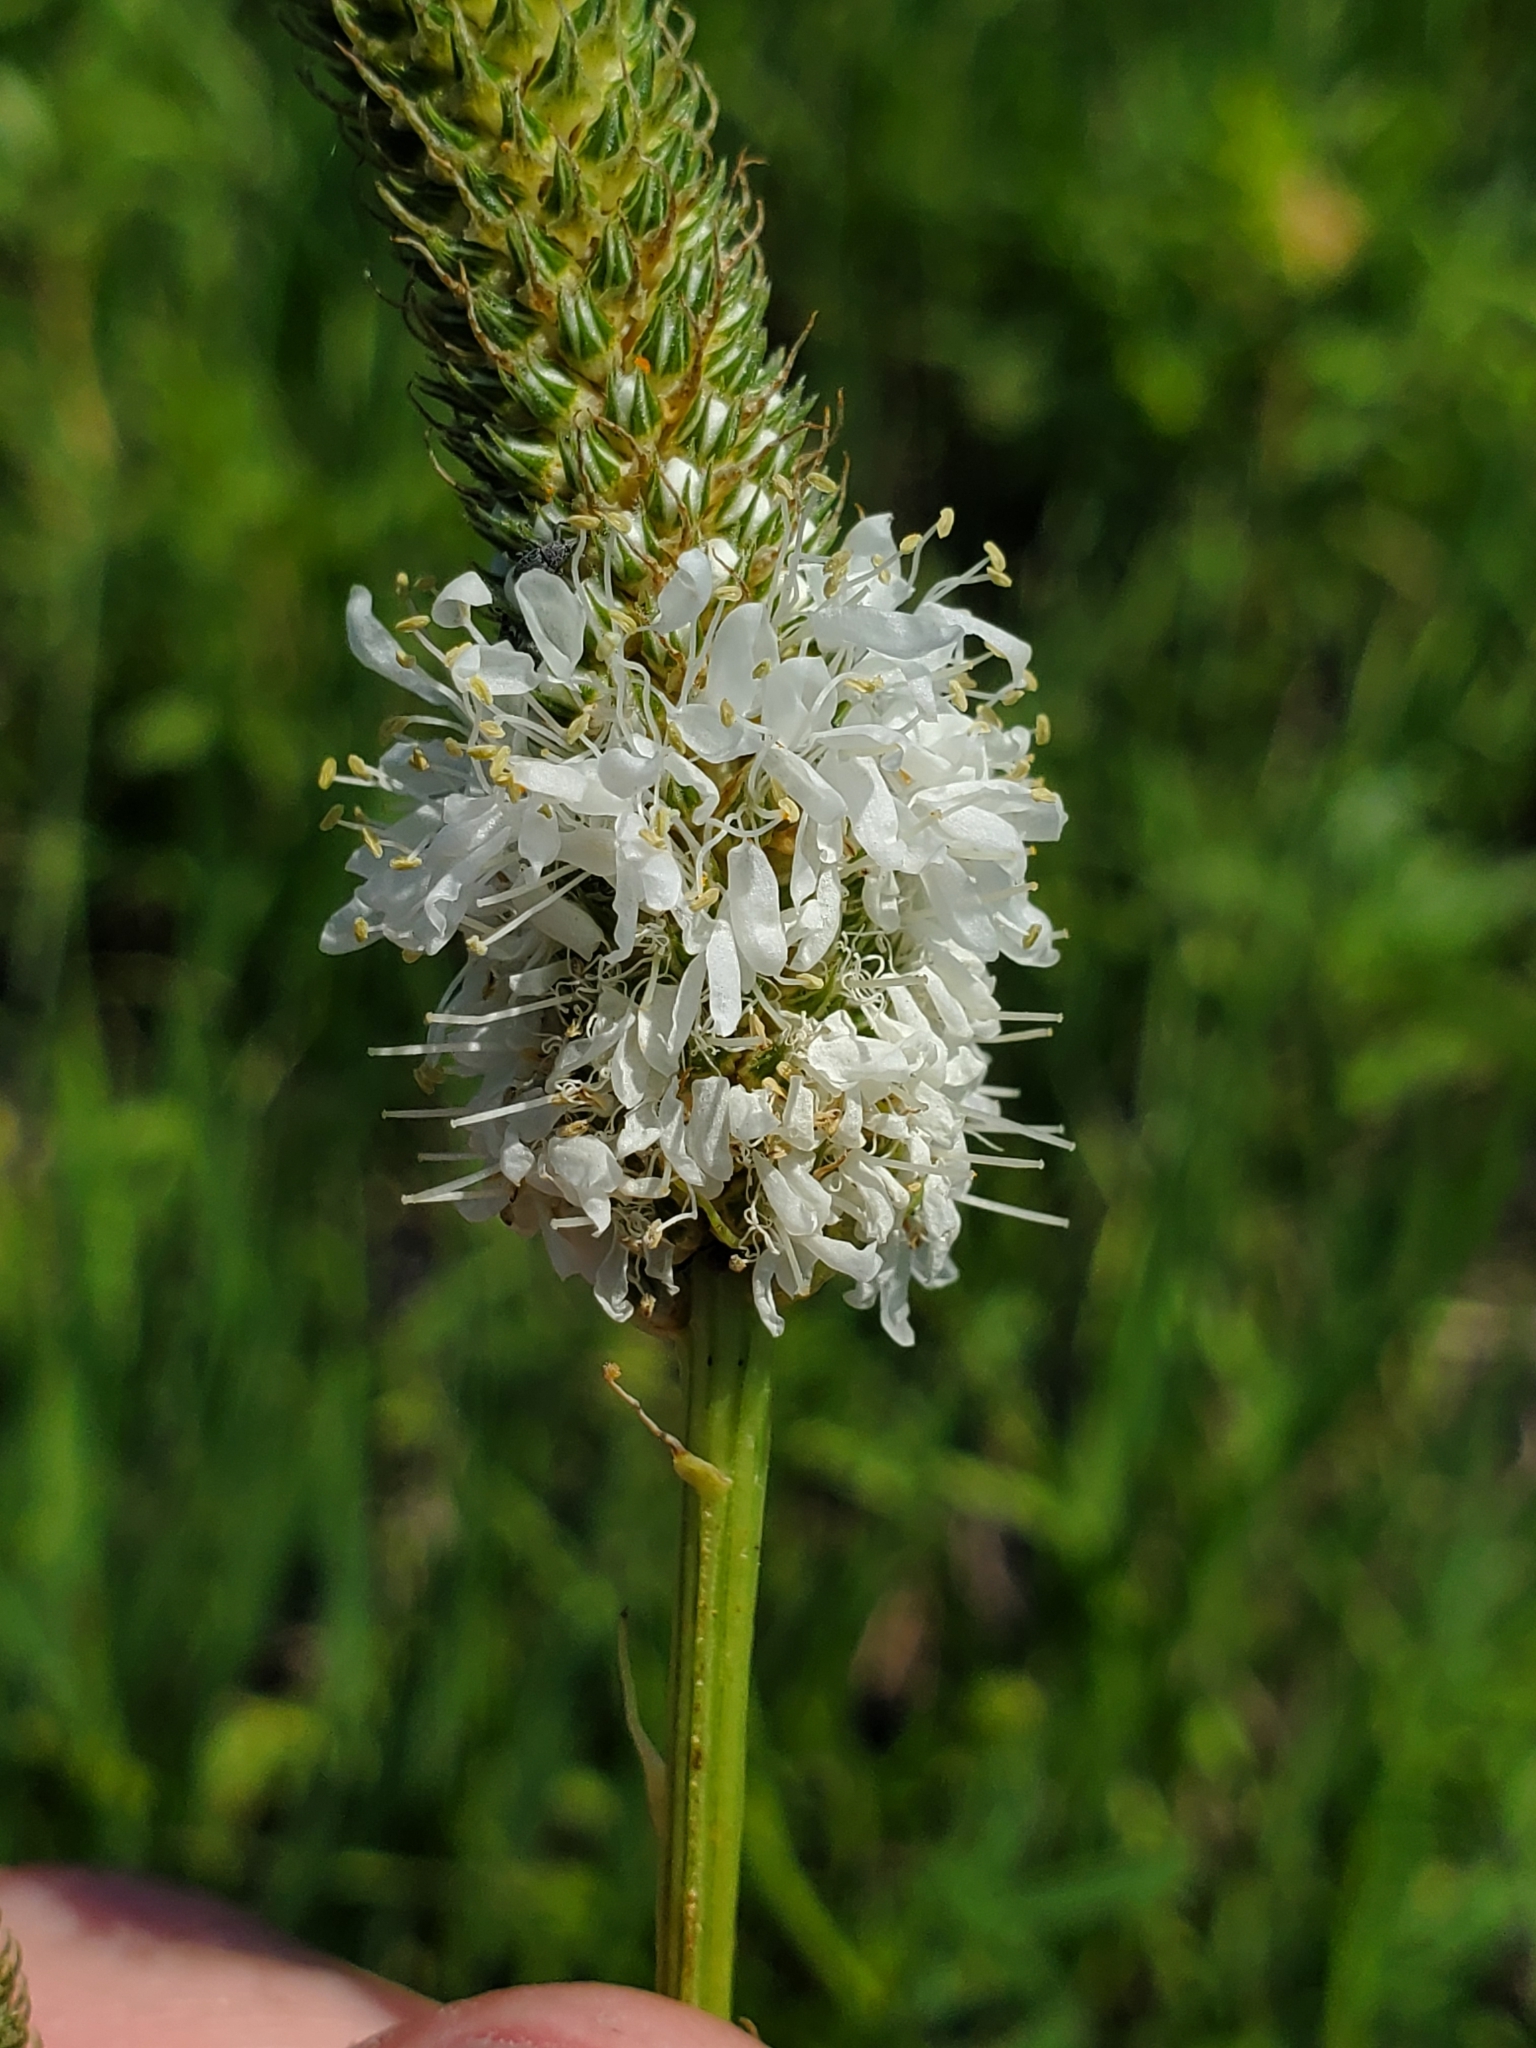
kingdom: Plantae
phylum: Tracheophyta
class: Magnoliopsida
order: Fabales
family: Fabaceae
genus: Dalea
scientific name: Dalea candida
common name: White prairie-clover
